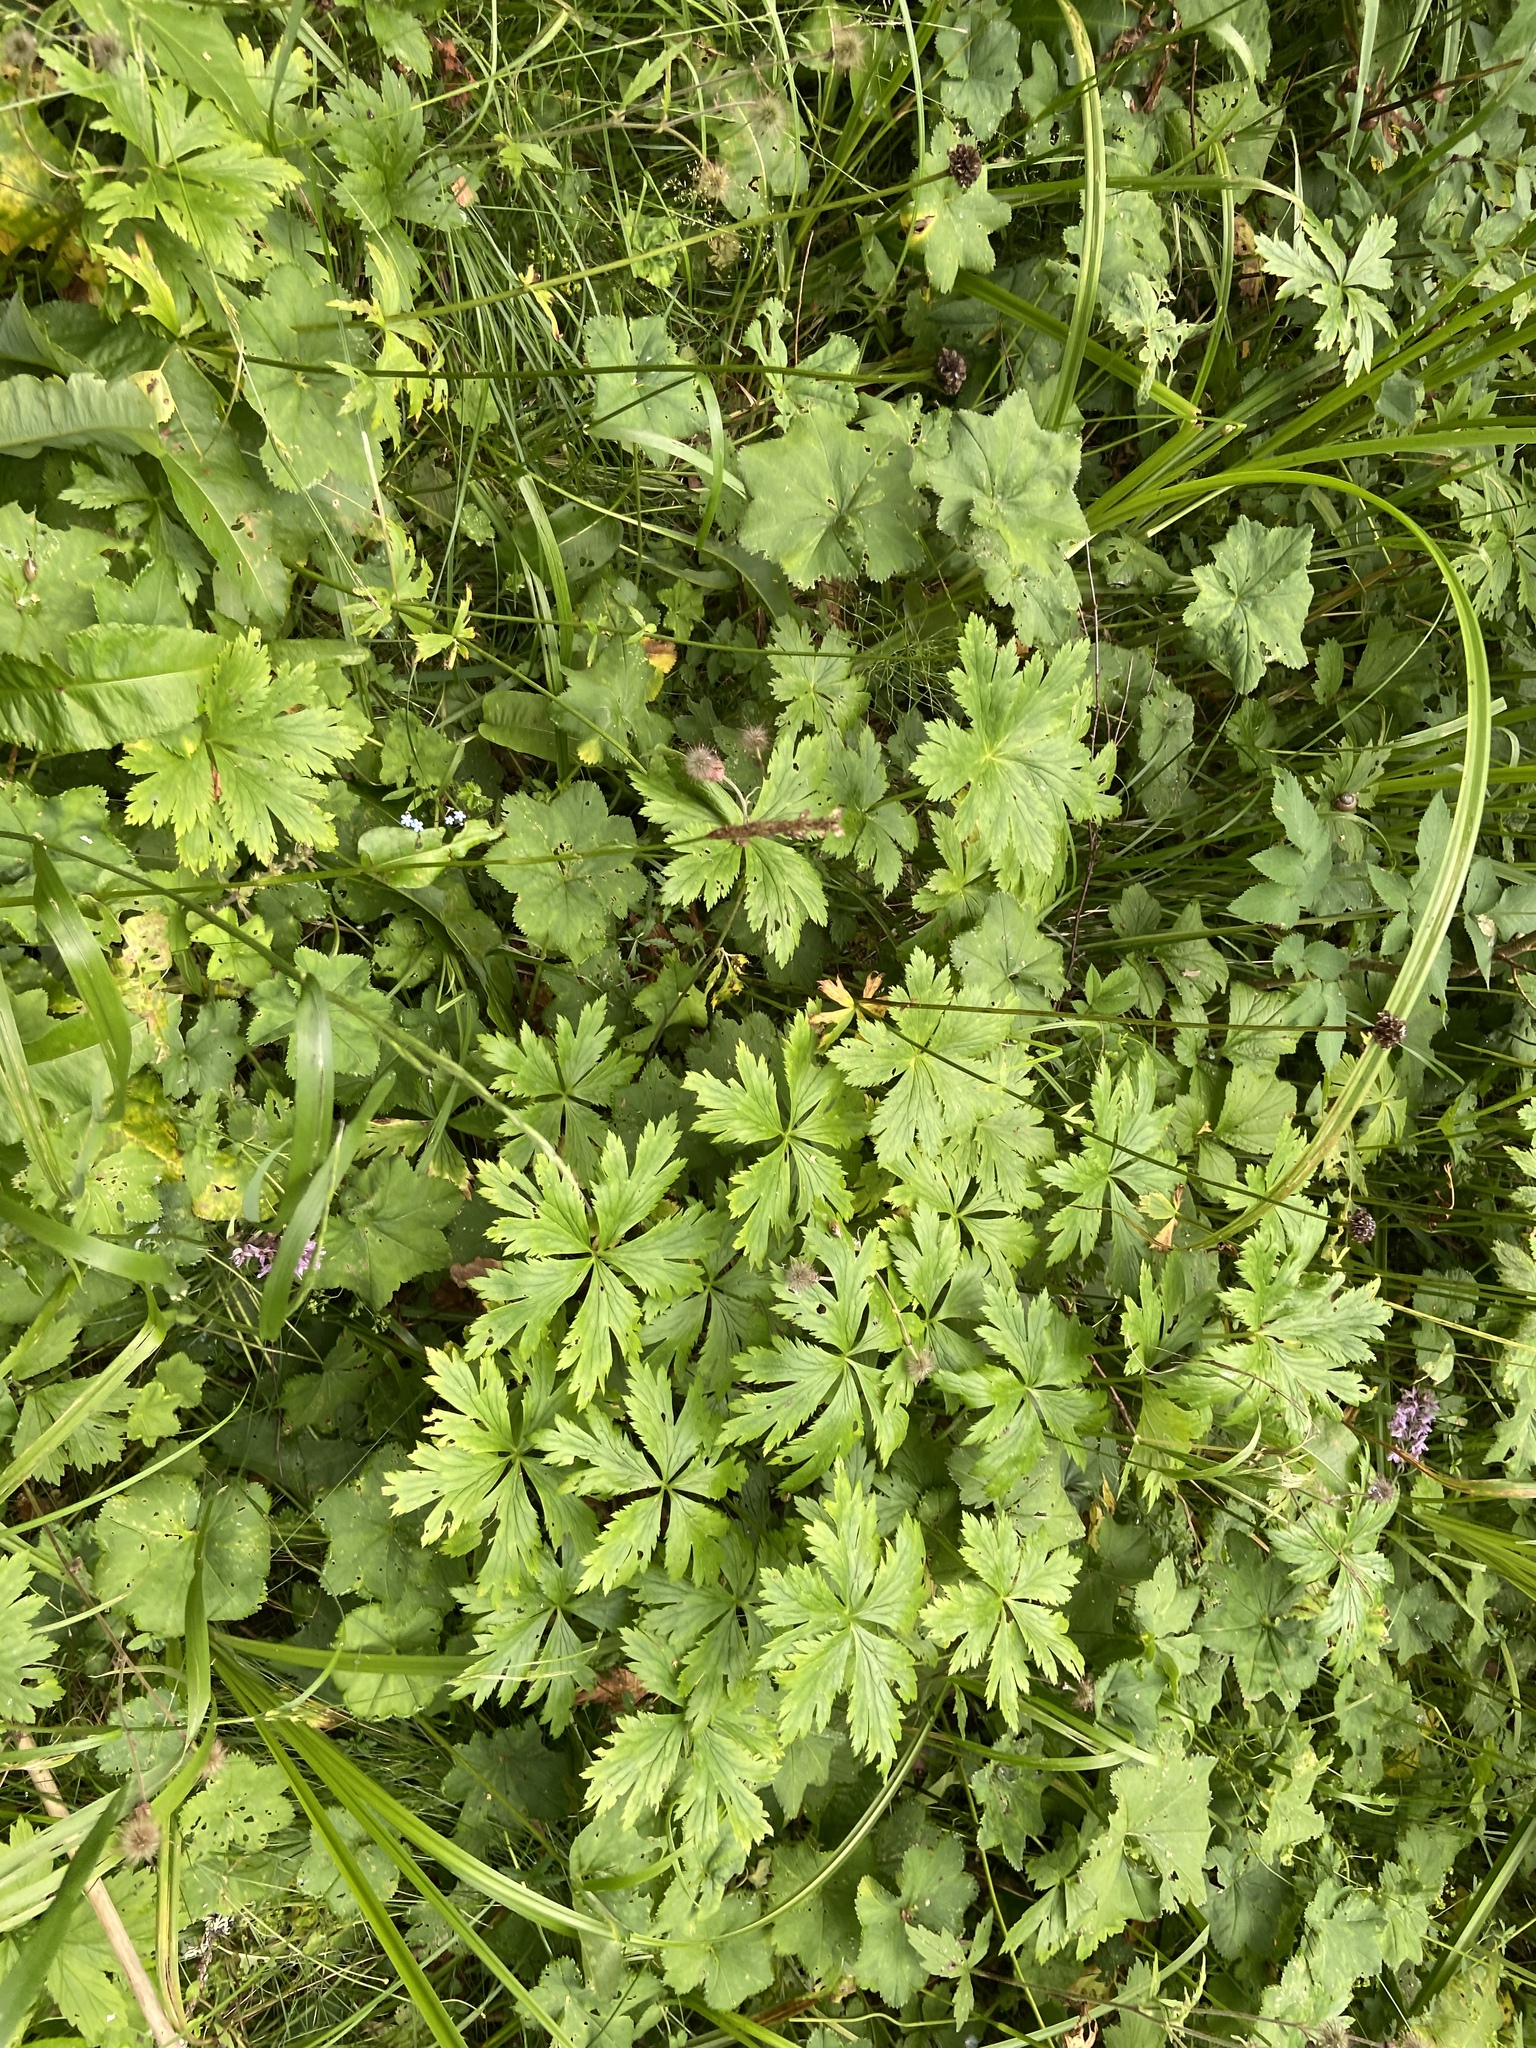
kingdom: Plantae
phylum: Tracheophyta
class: Magnoliopsida
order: Ranunculales
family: Ranunculaceae
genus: Trollius
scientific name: Trollius europaeus
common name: European globeflower
